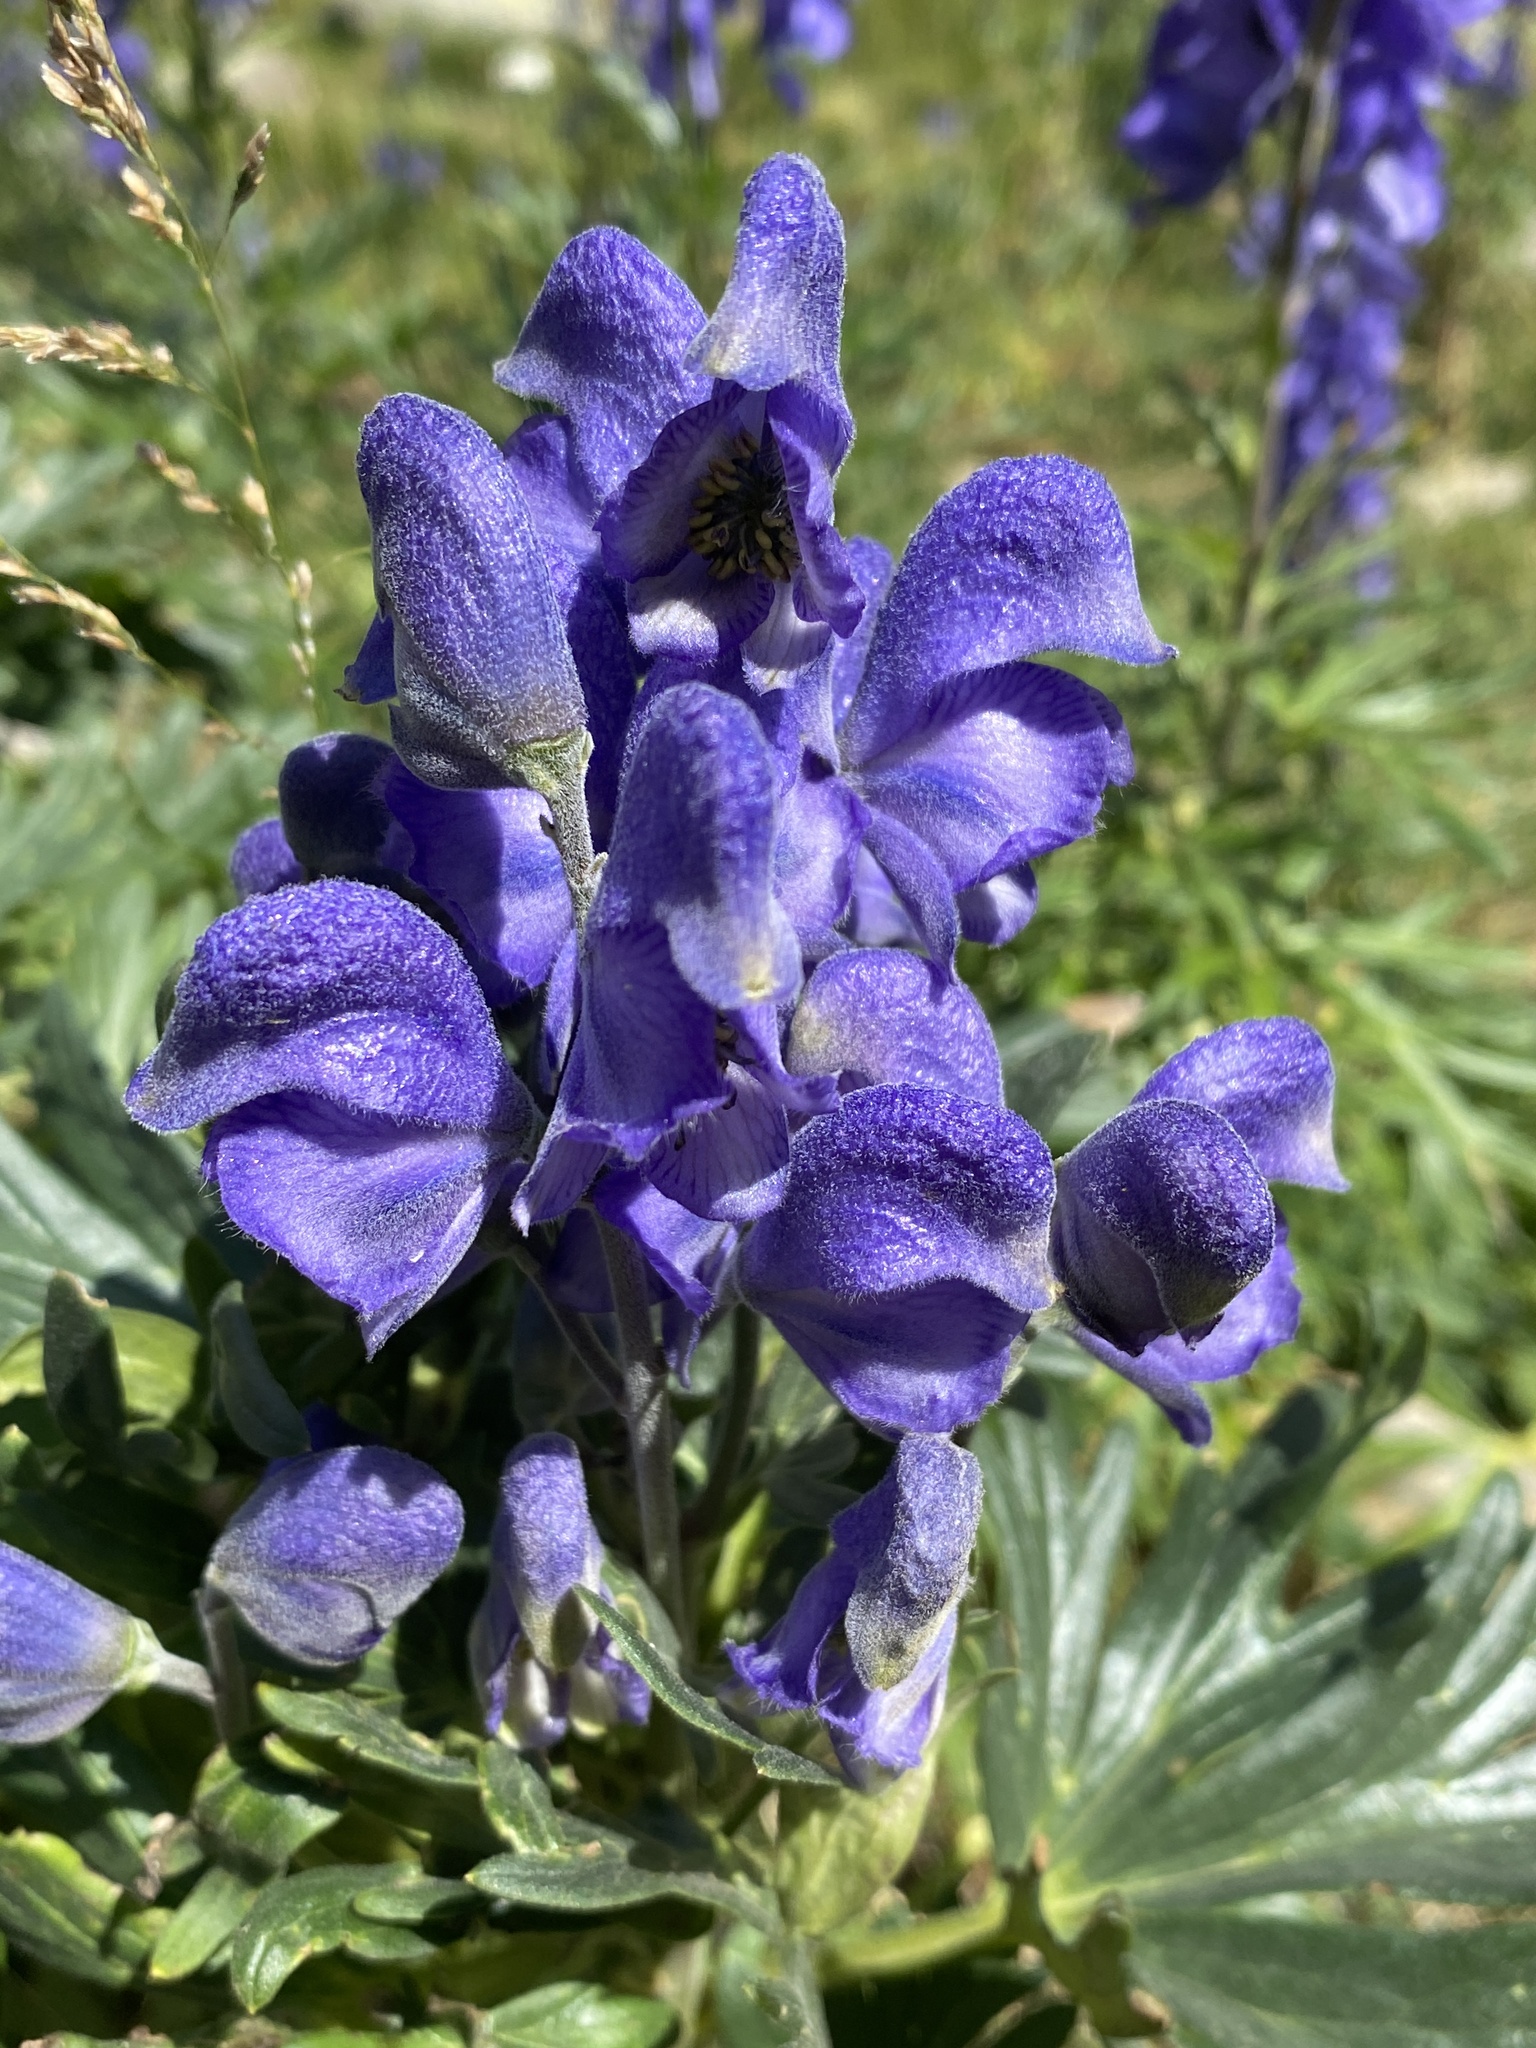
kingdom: Plantae
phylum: Tracheophyta
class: Magnoliopsida
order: Ranunculales
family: Ranunculaceae
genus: Aconitum
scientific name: Aconitum napellus
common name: Garden monkshood
